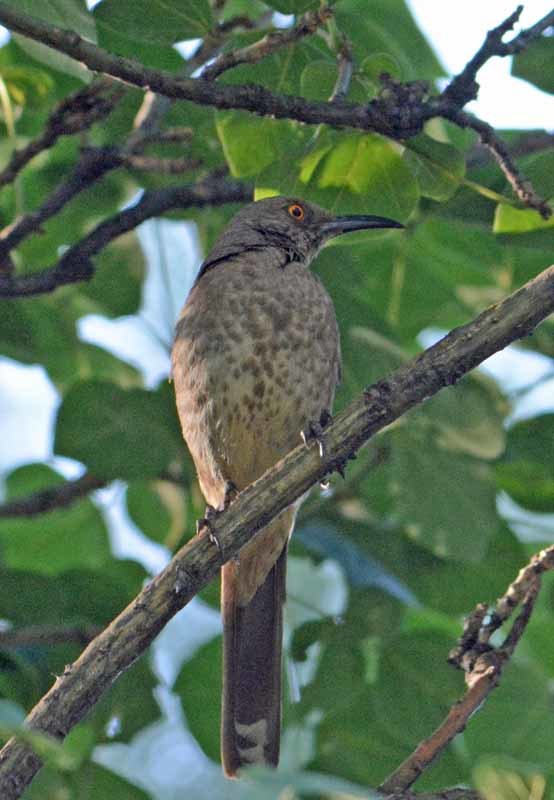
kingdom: Animalia
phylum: Chordata
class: Aves
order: Passeriformes
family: Mimidae
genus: Toxostoma
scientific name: Toxostoma curvirostre
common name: Curve-billed thrasher
